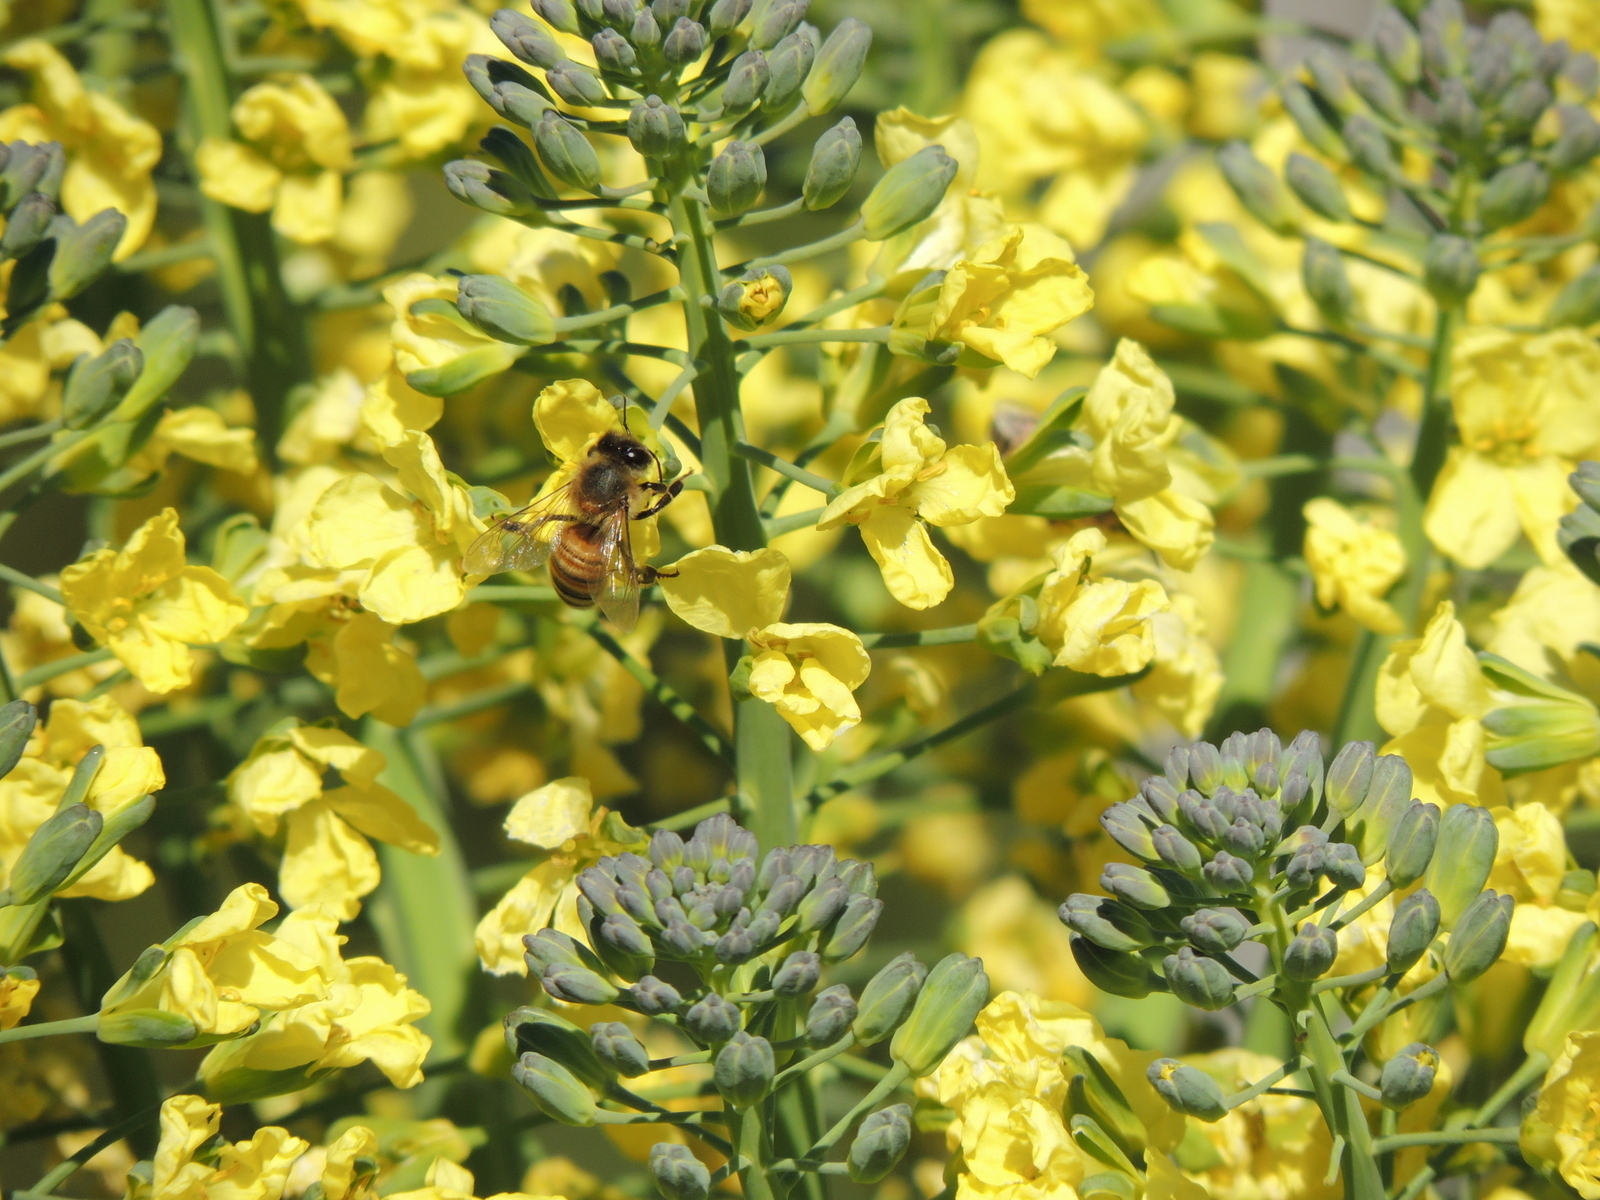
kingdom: Animalia
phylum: Arthropoda
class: Insecta
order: Hymenoptera
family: Apidae
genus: Apis
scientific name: Apis mellifera
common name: Honey bee
